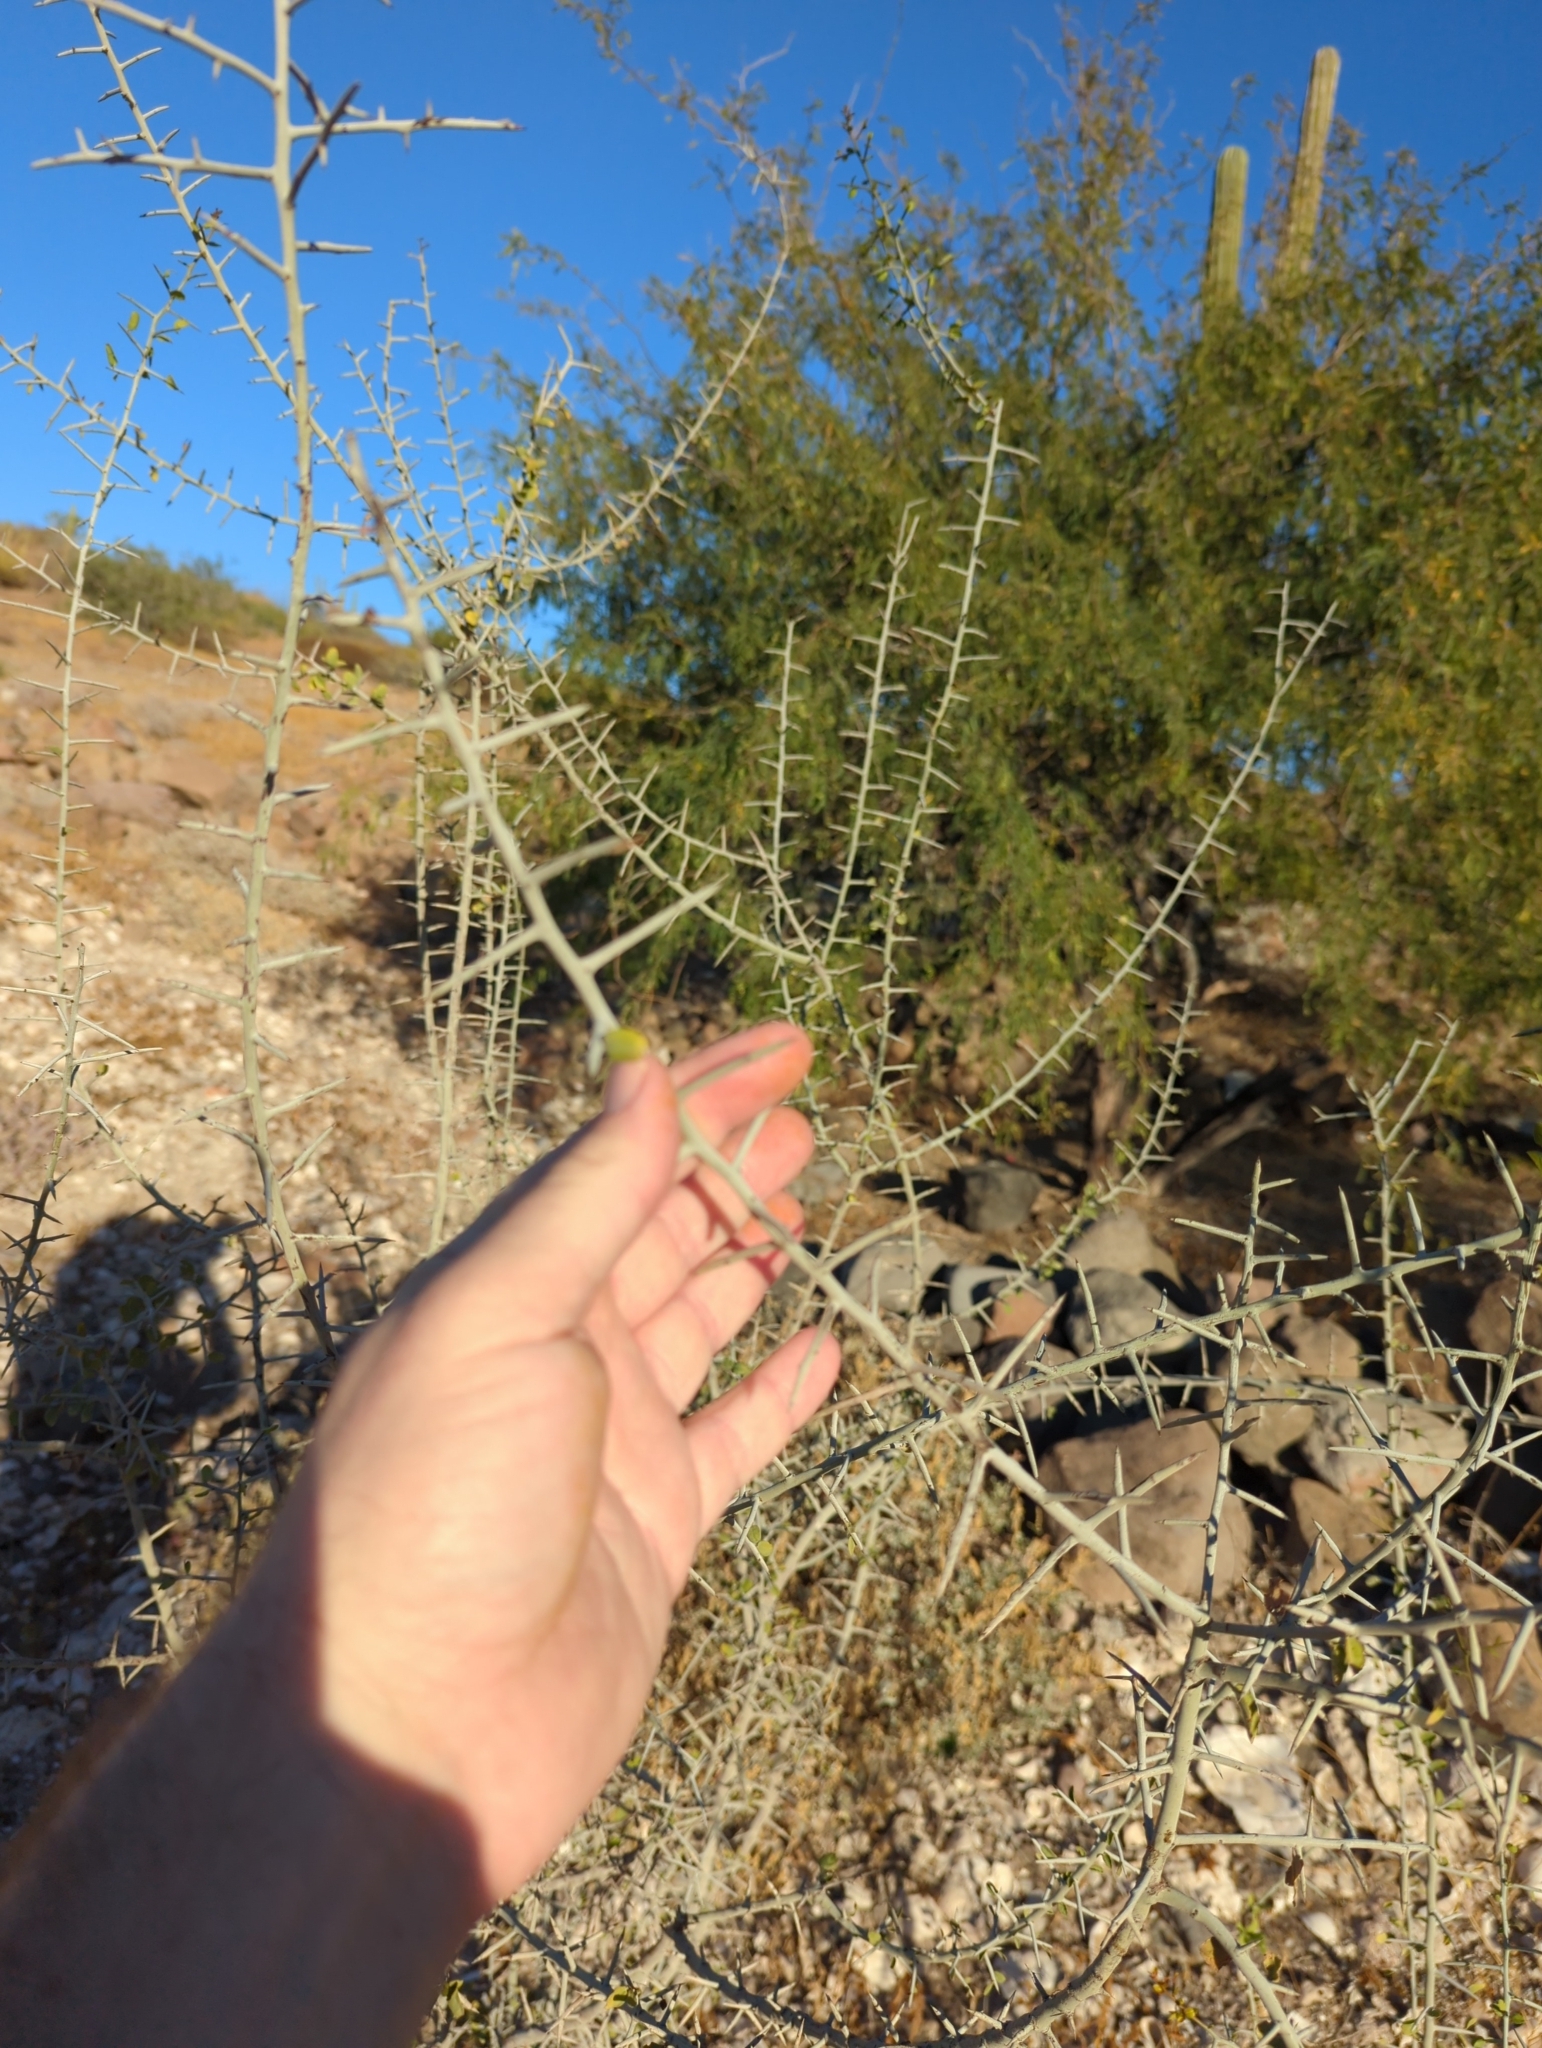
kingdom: Plantae
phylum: Tracheophyta
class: Magnoliopsida
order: Rosales
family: Rhamnaceae
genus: Sarcomphalus
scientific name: Sarcomphalus obtusifolius
